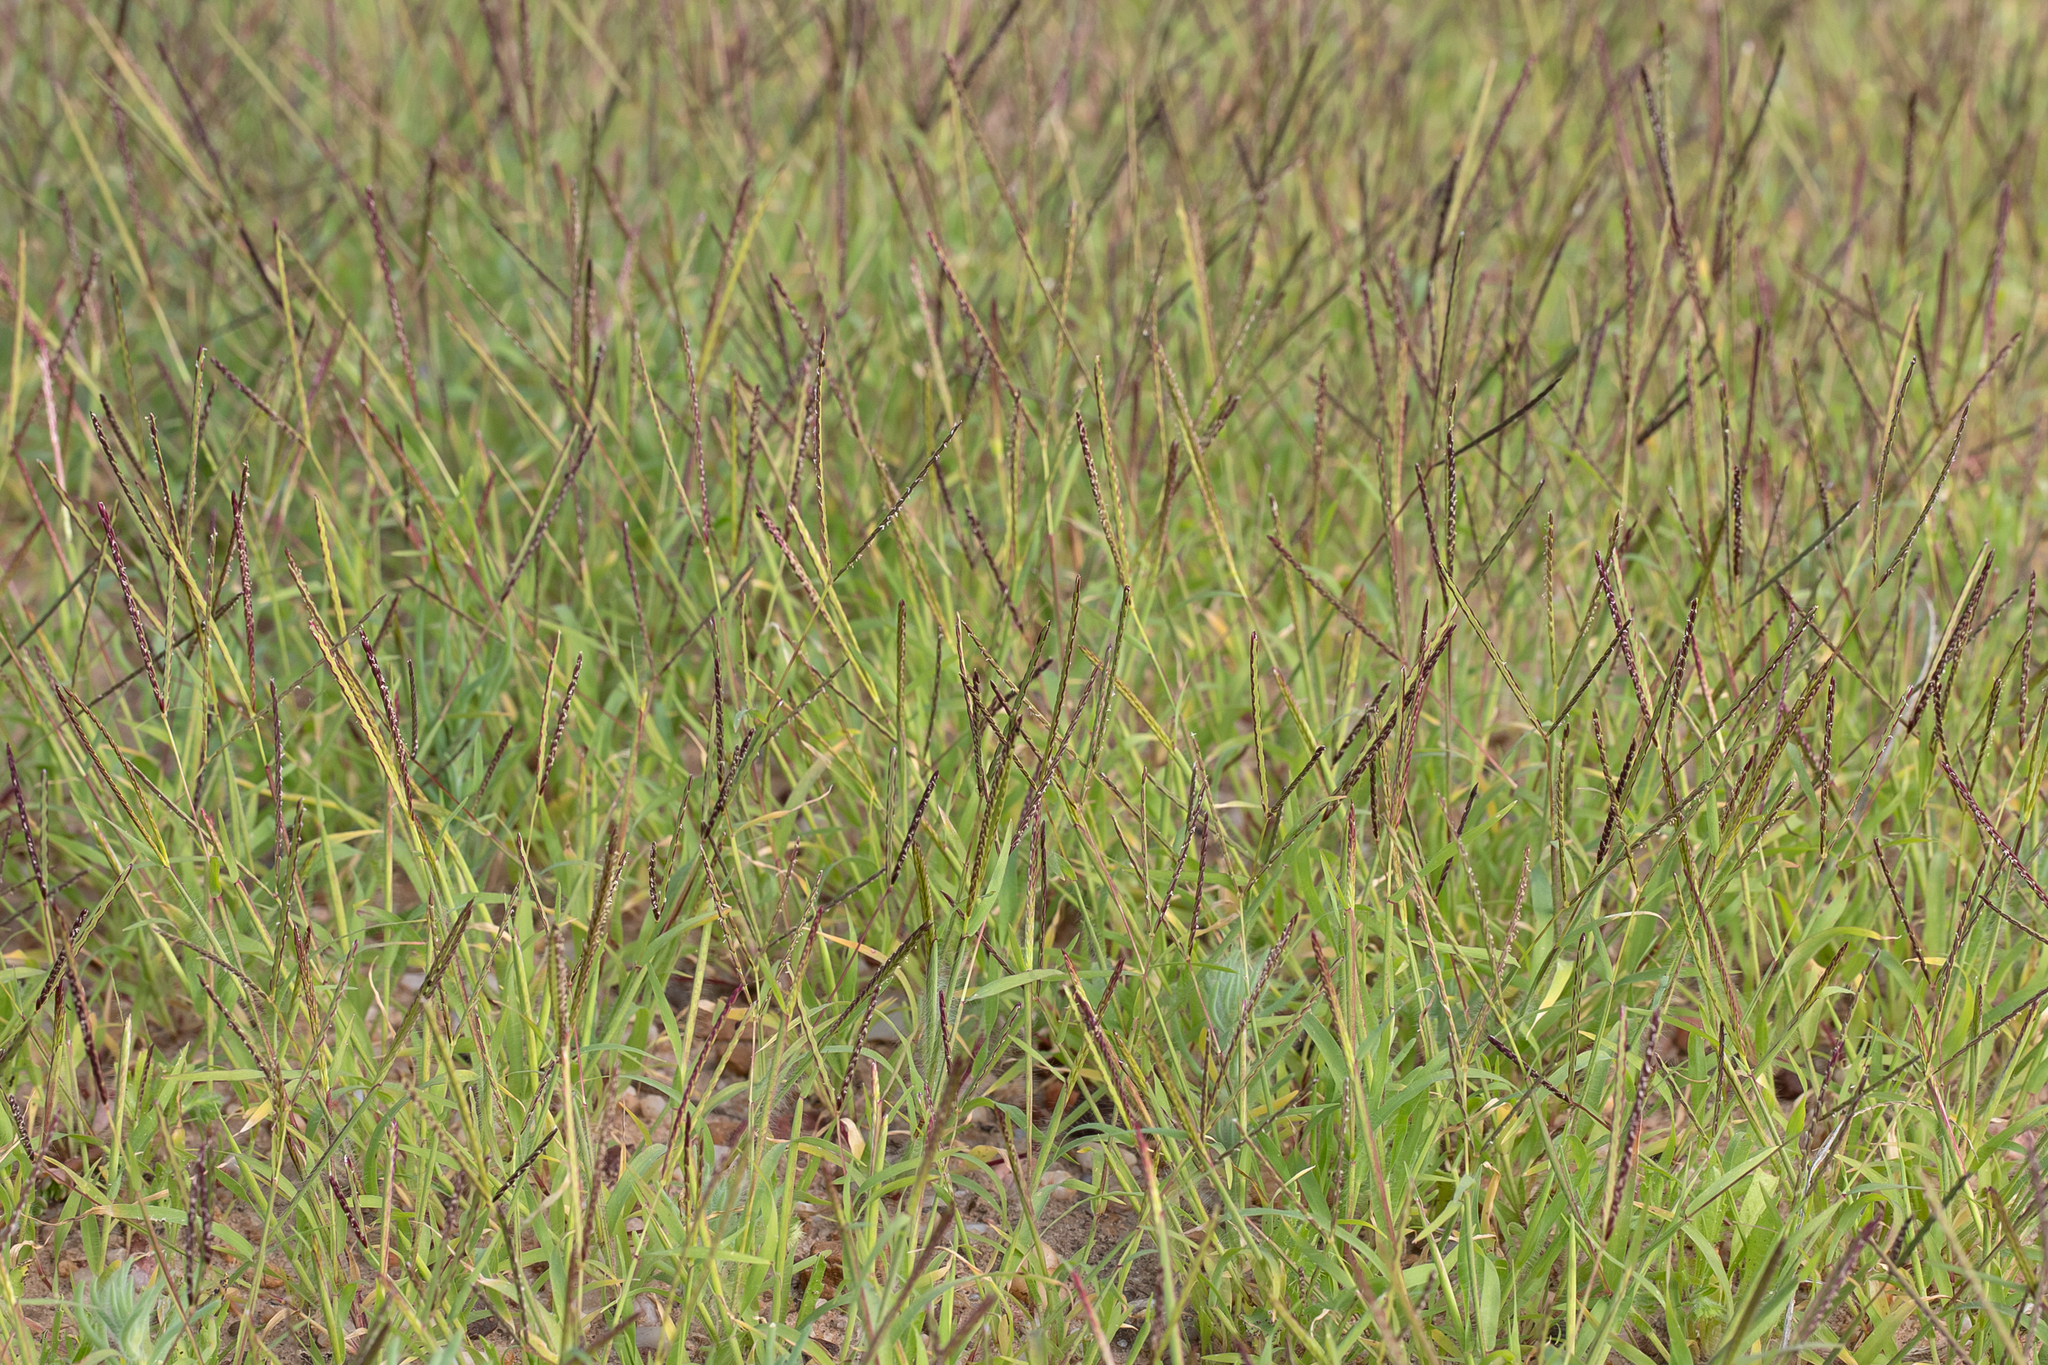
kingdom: Plantae
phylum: Tracheophyta
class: Liliopsida
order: Poales
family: Poaceae
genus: Cynodon
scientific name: Cynodon simonii
